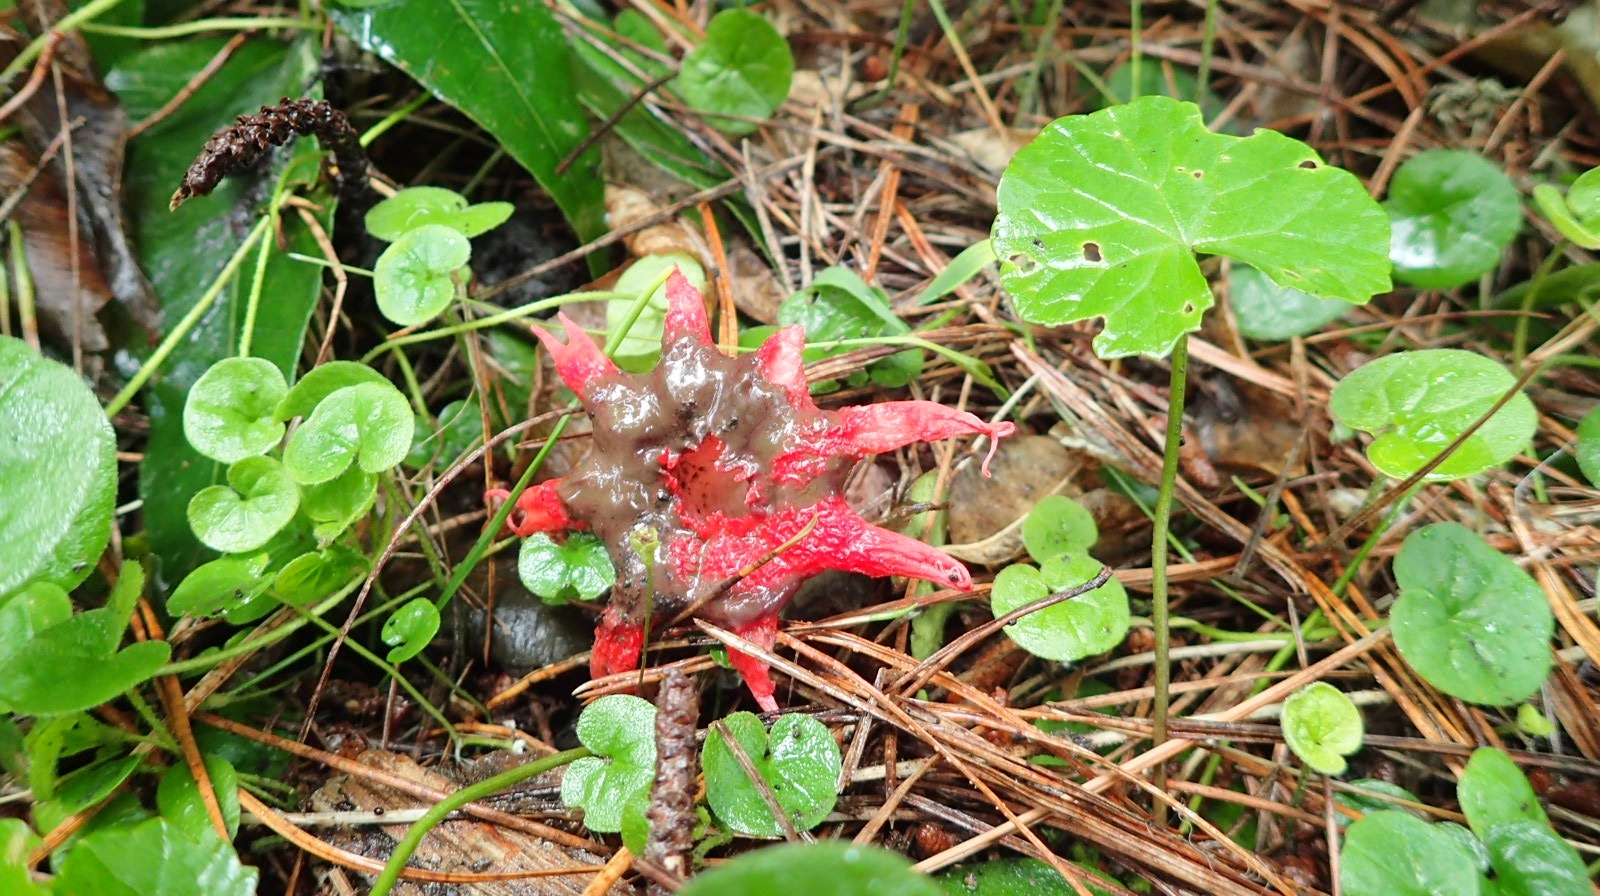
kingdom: Fungi
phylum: Basidiomycota
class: Agaricomycetes
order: Phallales
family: Phallaceae
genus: Aseroe
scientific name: Aseroe rubra
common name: Starfish fungus
